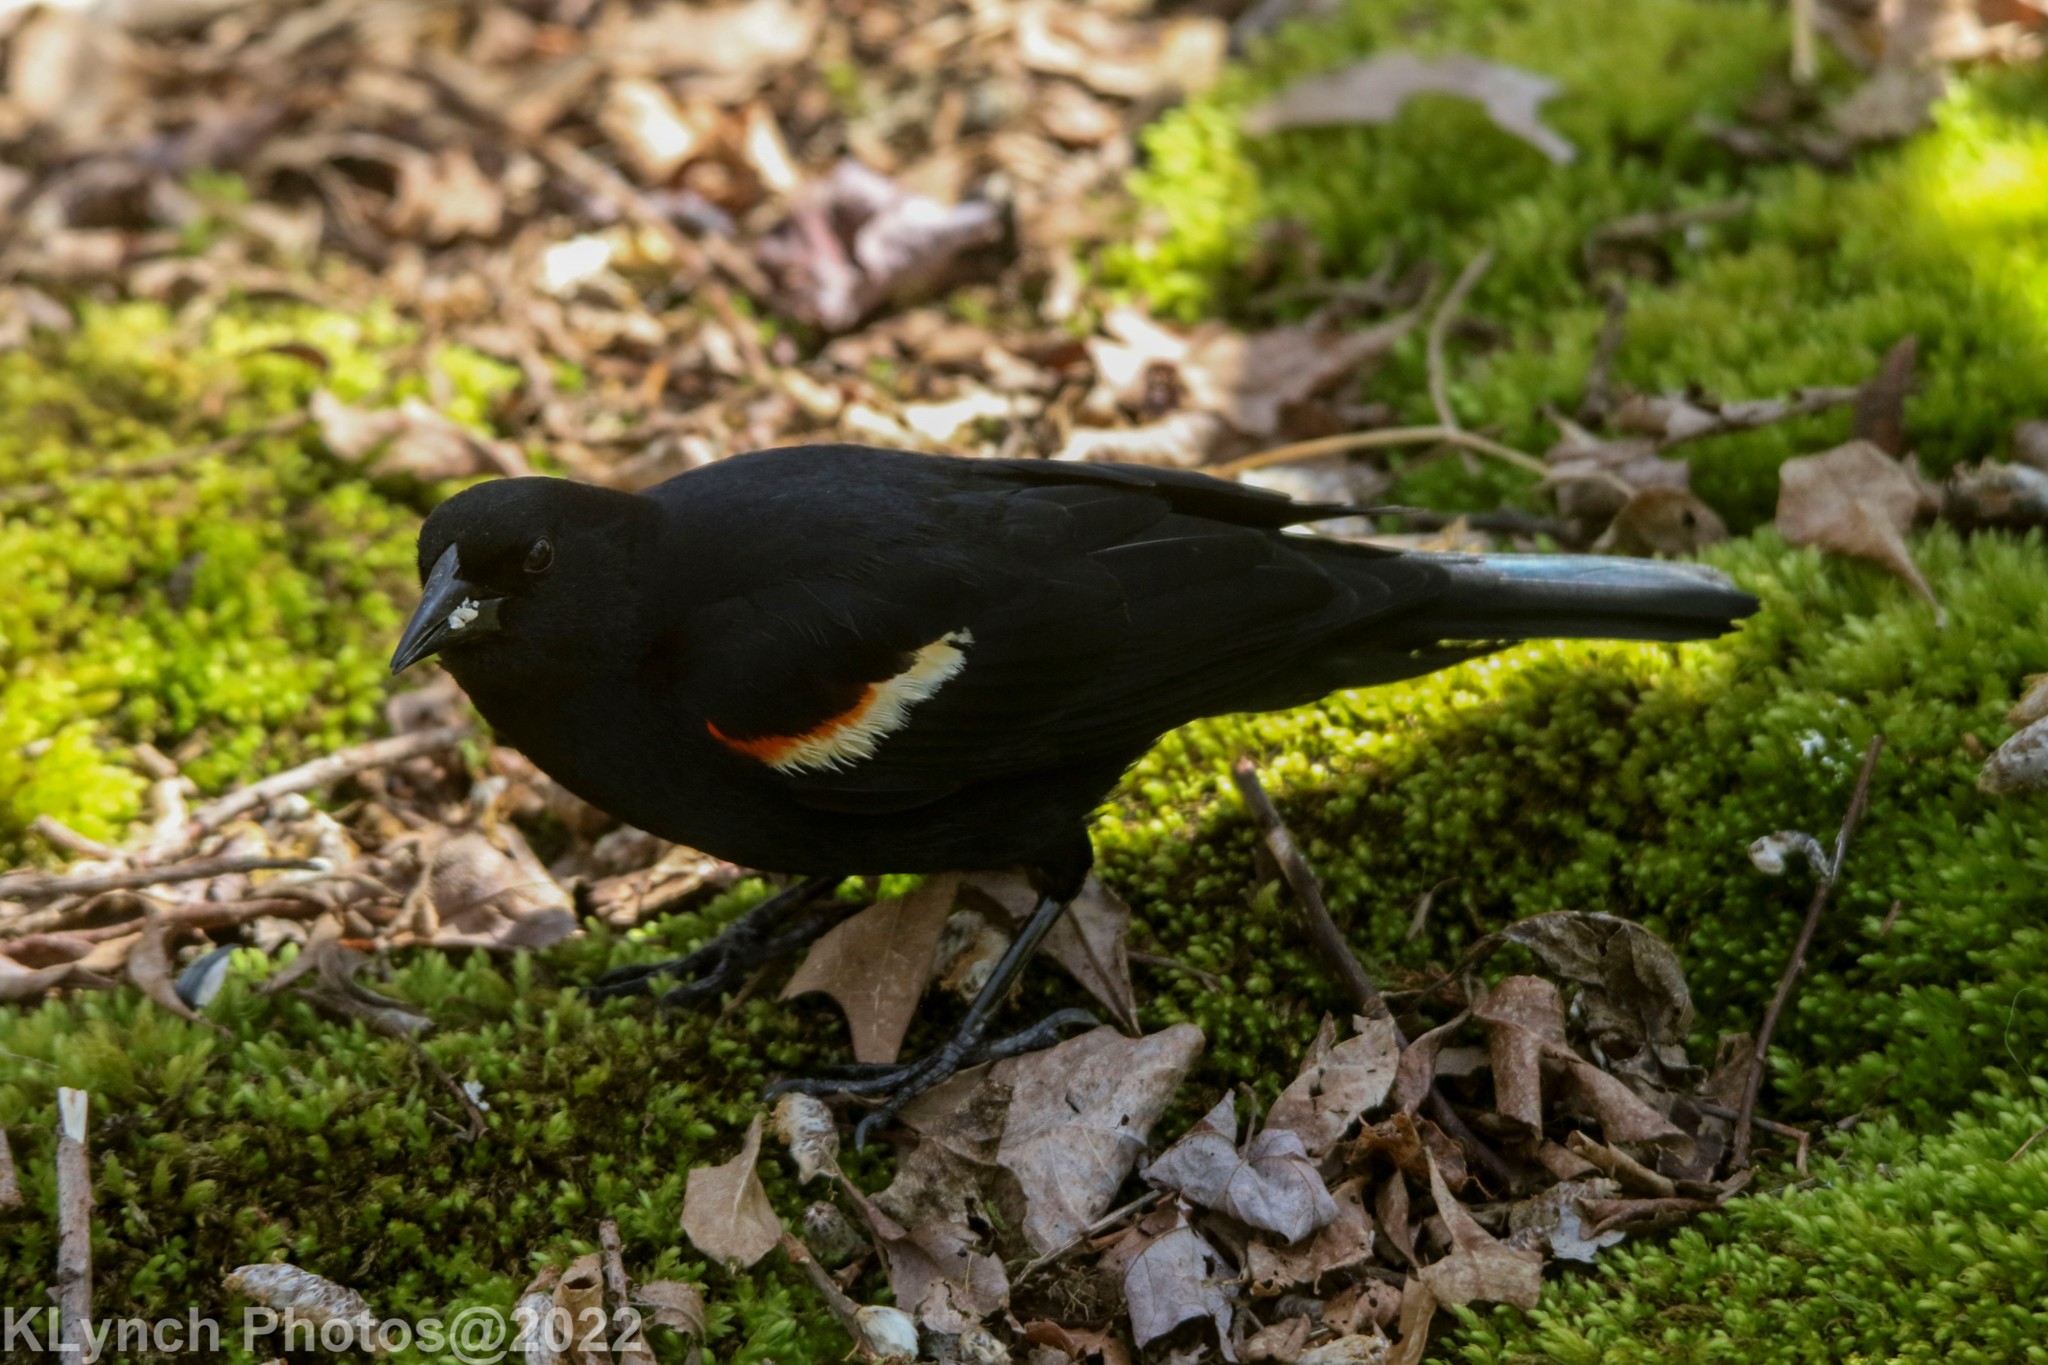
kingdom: Animalia
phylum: Chordata
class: Aves
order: Passeriformes
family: Icteridae
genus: Agelaius
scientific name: Agelaius phoeniceus
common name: Red-winged blackbird
